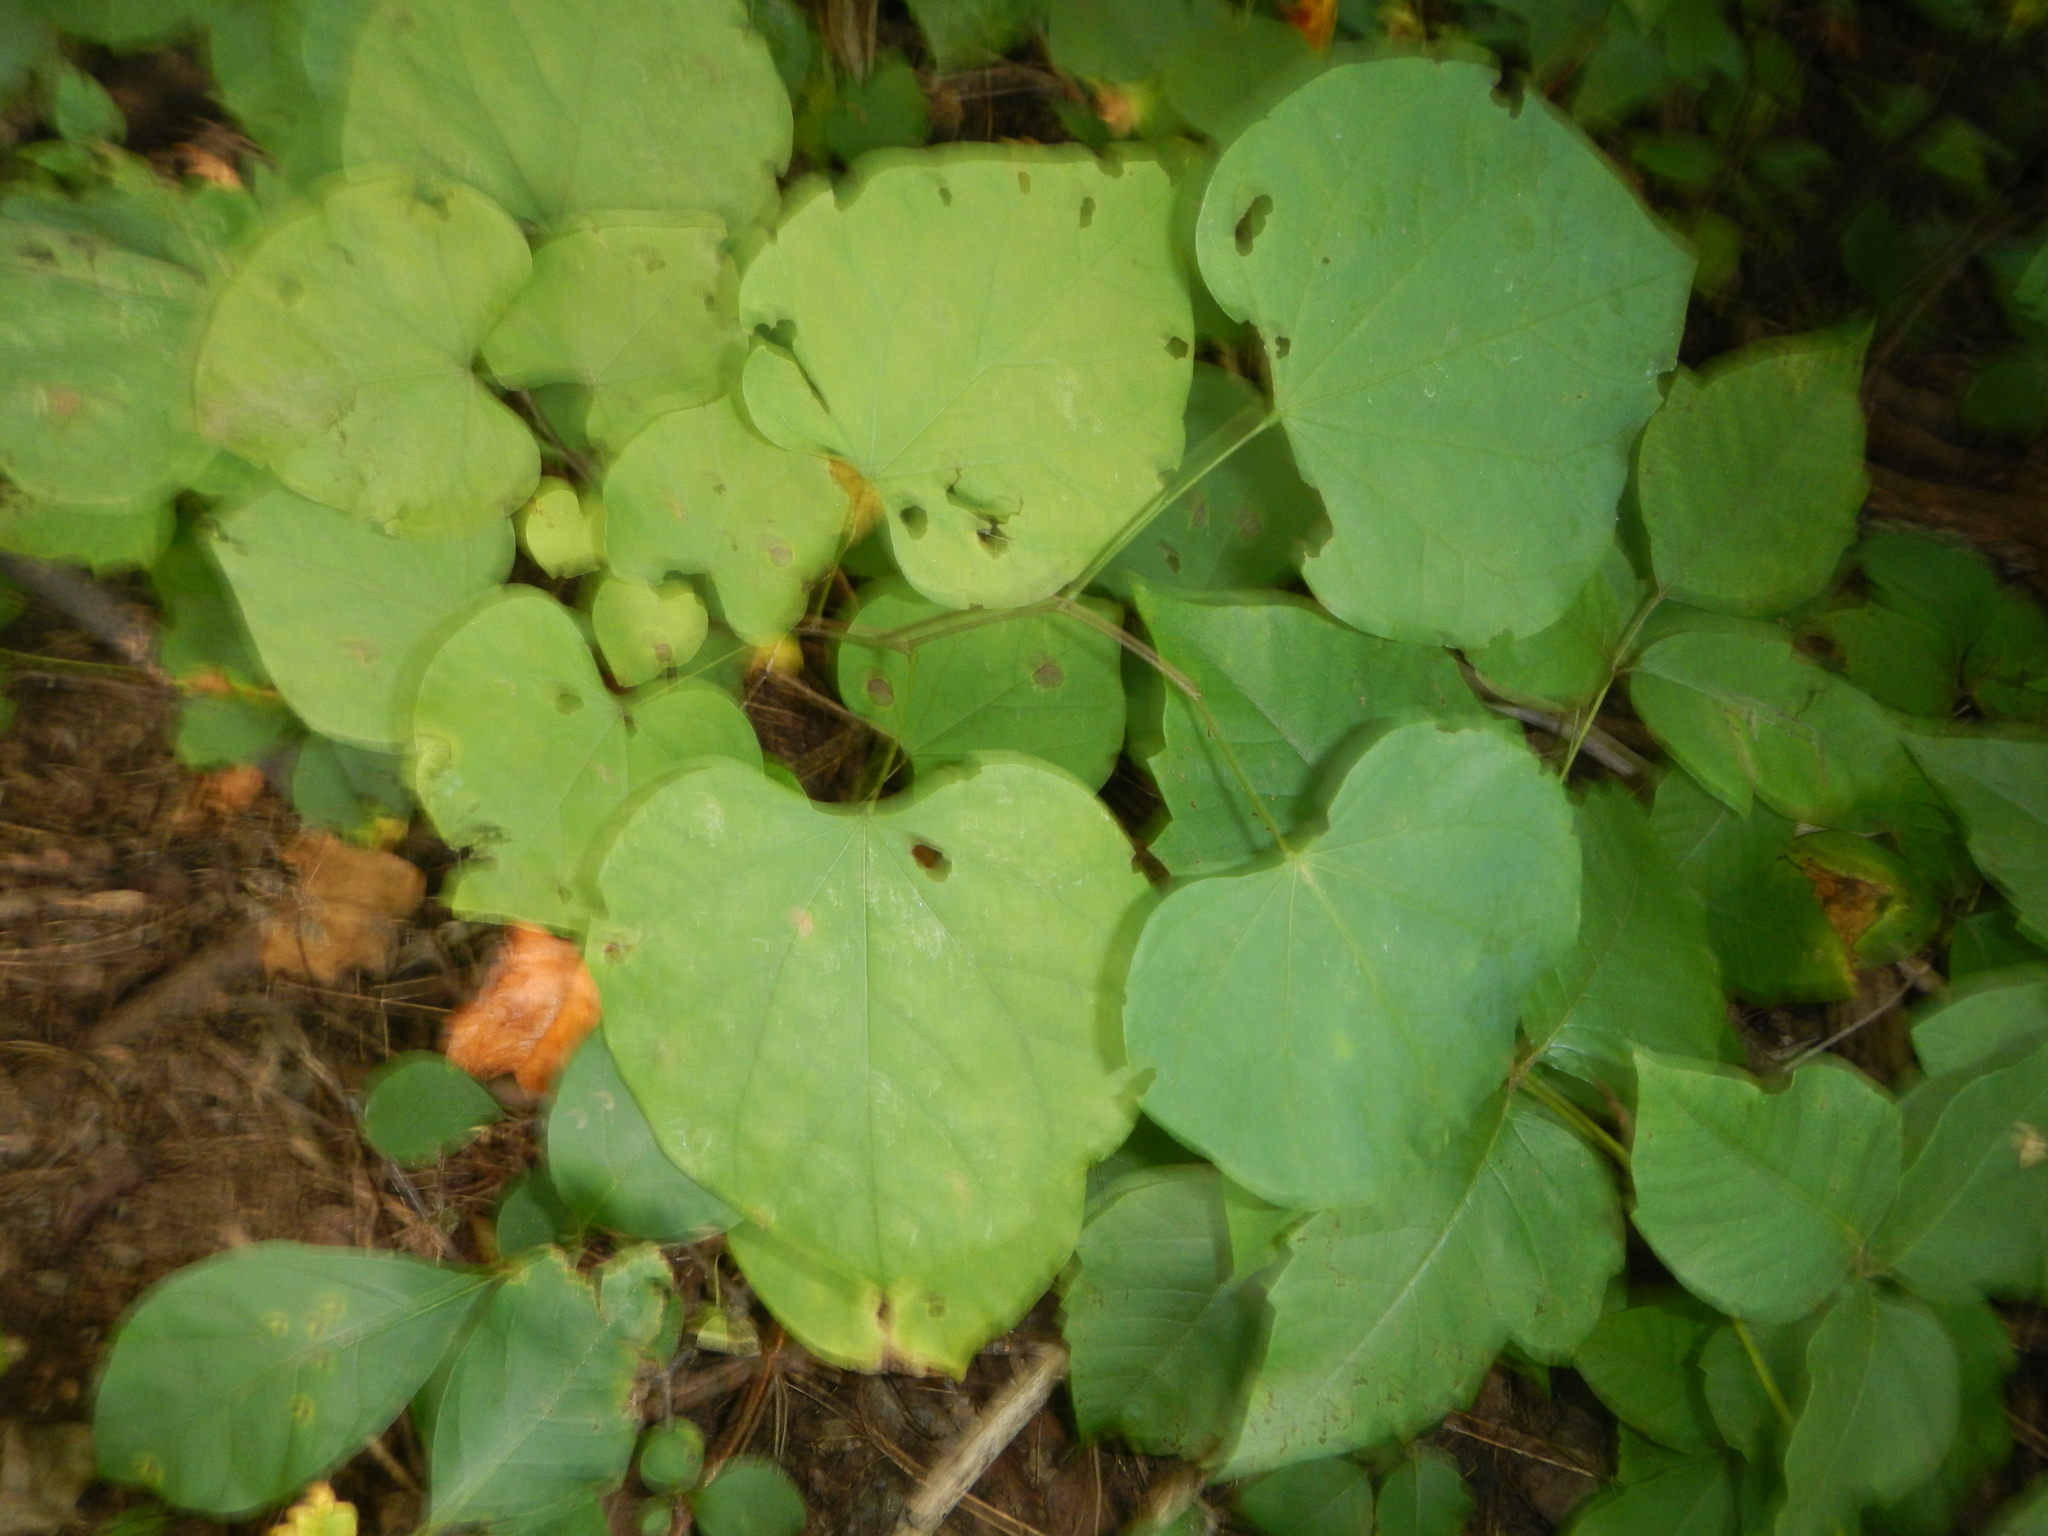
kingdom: Plantae
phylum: Tracheophyta
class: Magnoliopsida
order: Fabales
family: Fabaceae
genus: Cercis
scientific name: Cercis canadensis
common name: Eastern redbud
